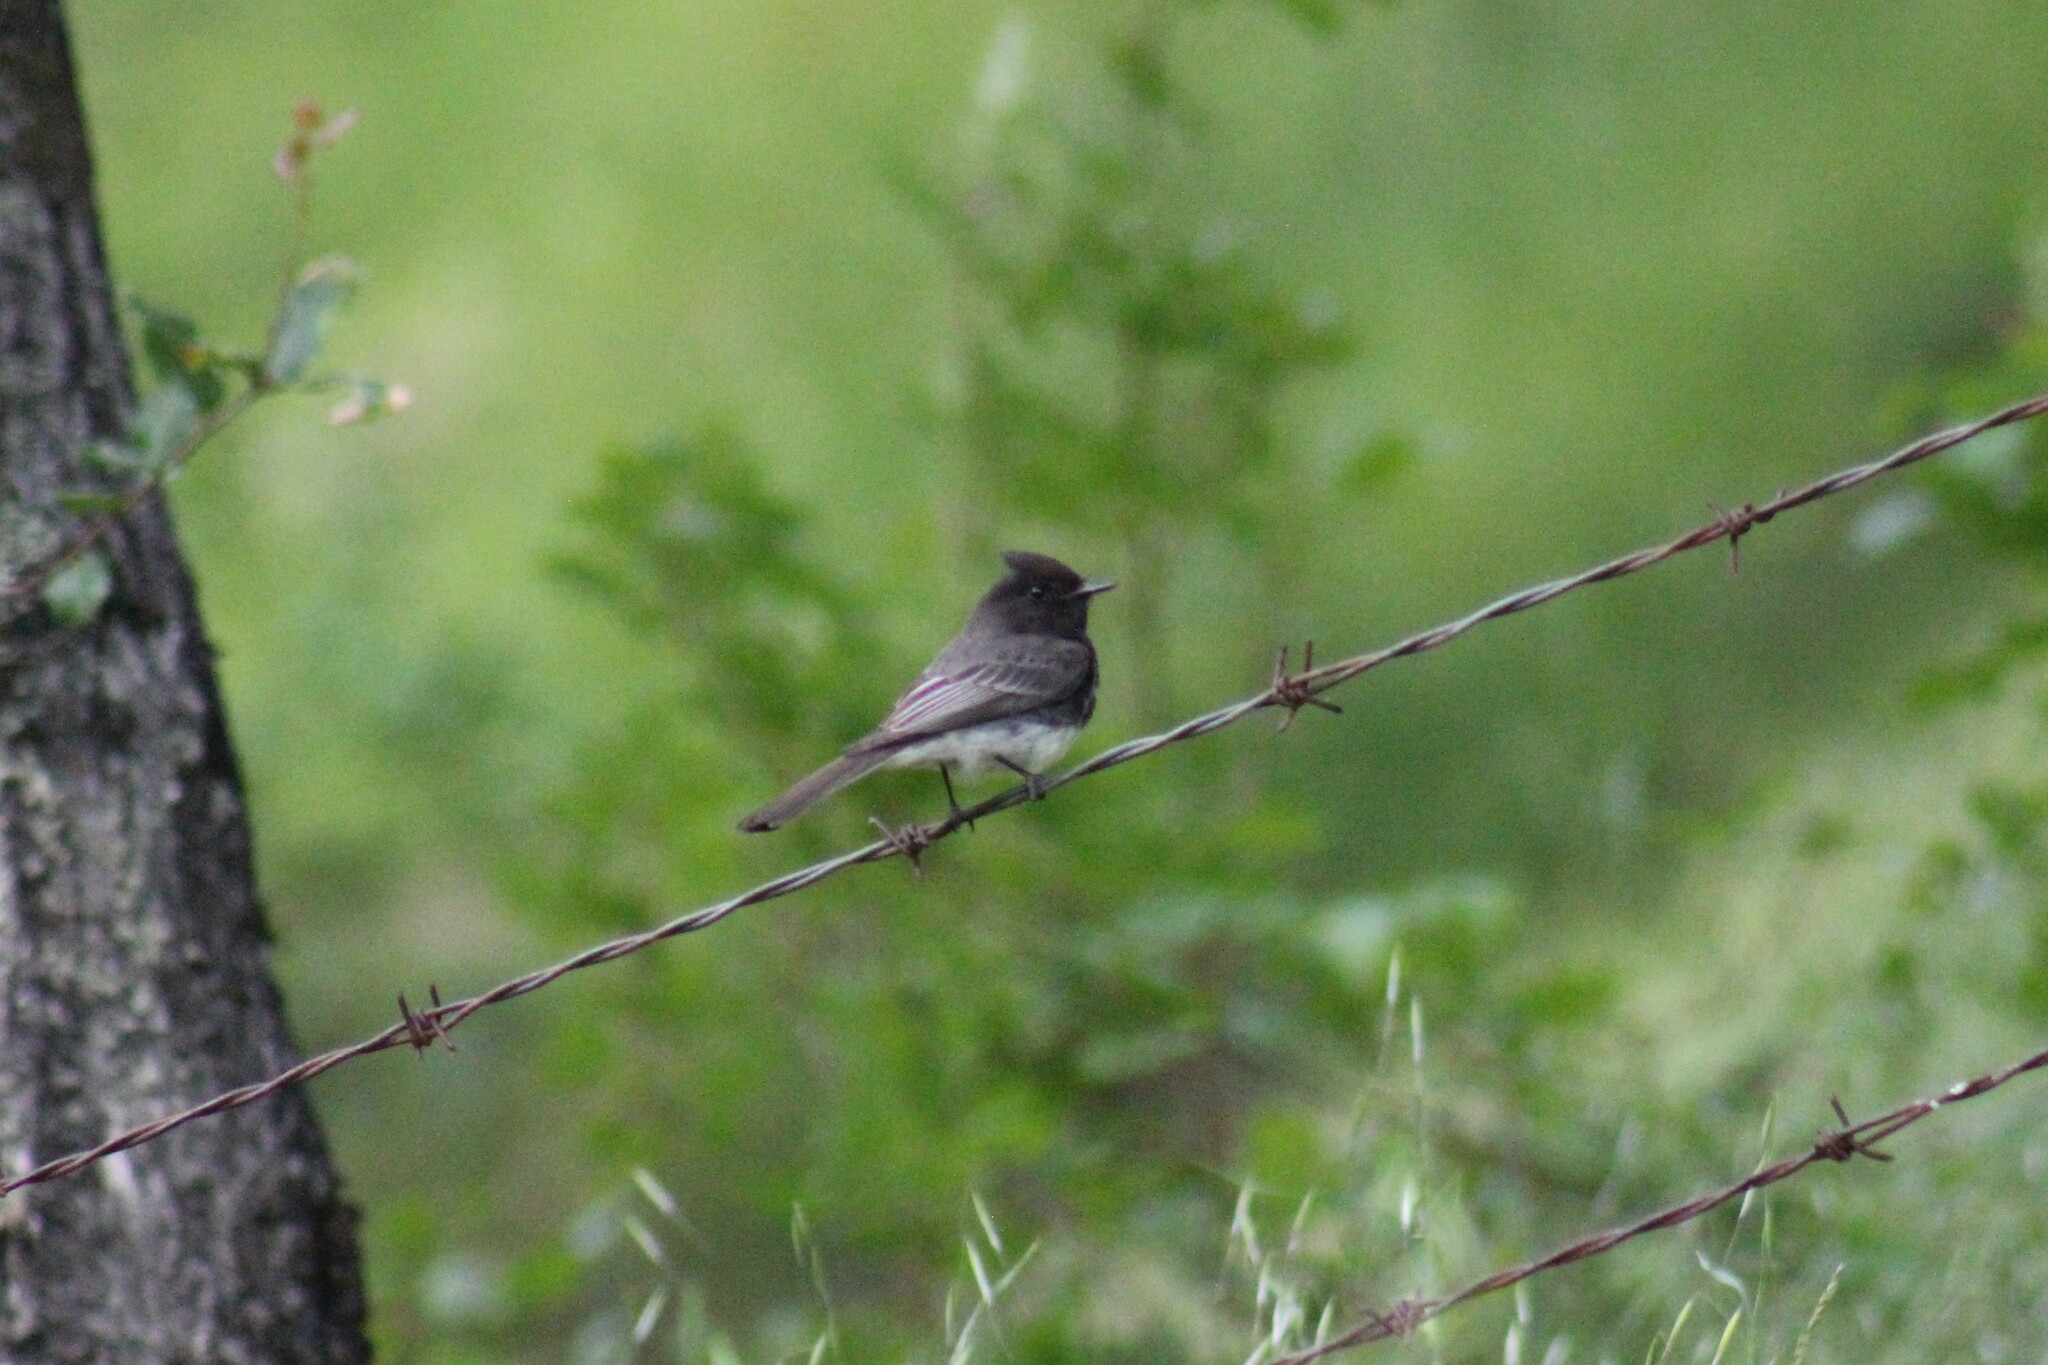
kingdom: Animalia
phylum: Chordata
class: Aves
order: Passeriformes
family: Tyrannidae
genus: Sayornis
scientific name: Sayornis nigricans
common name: Black phoebe
